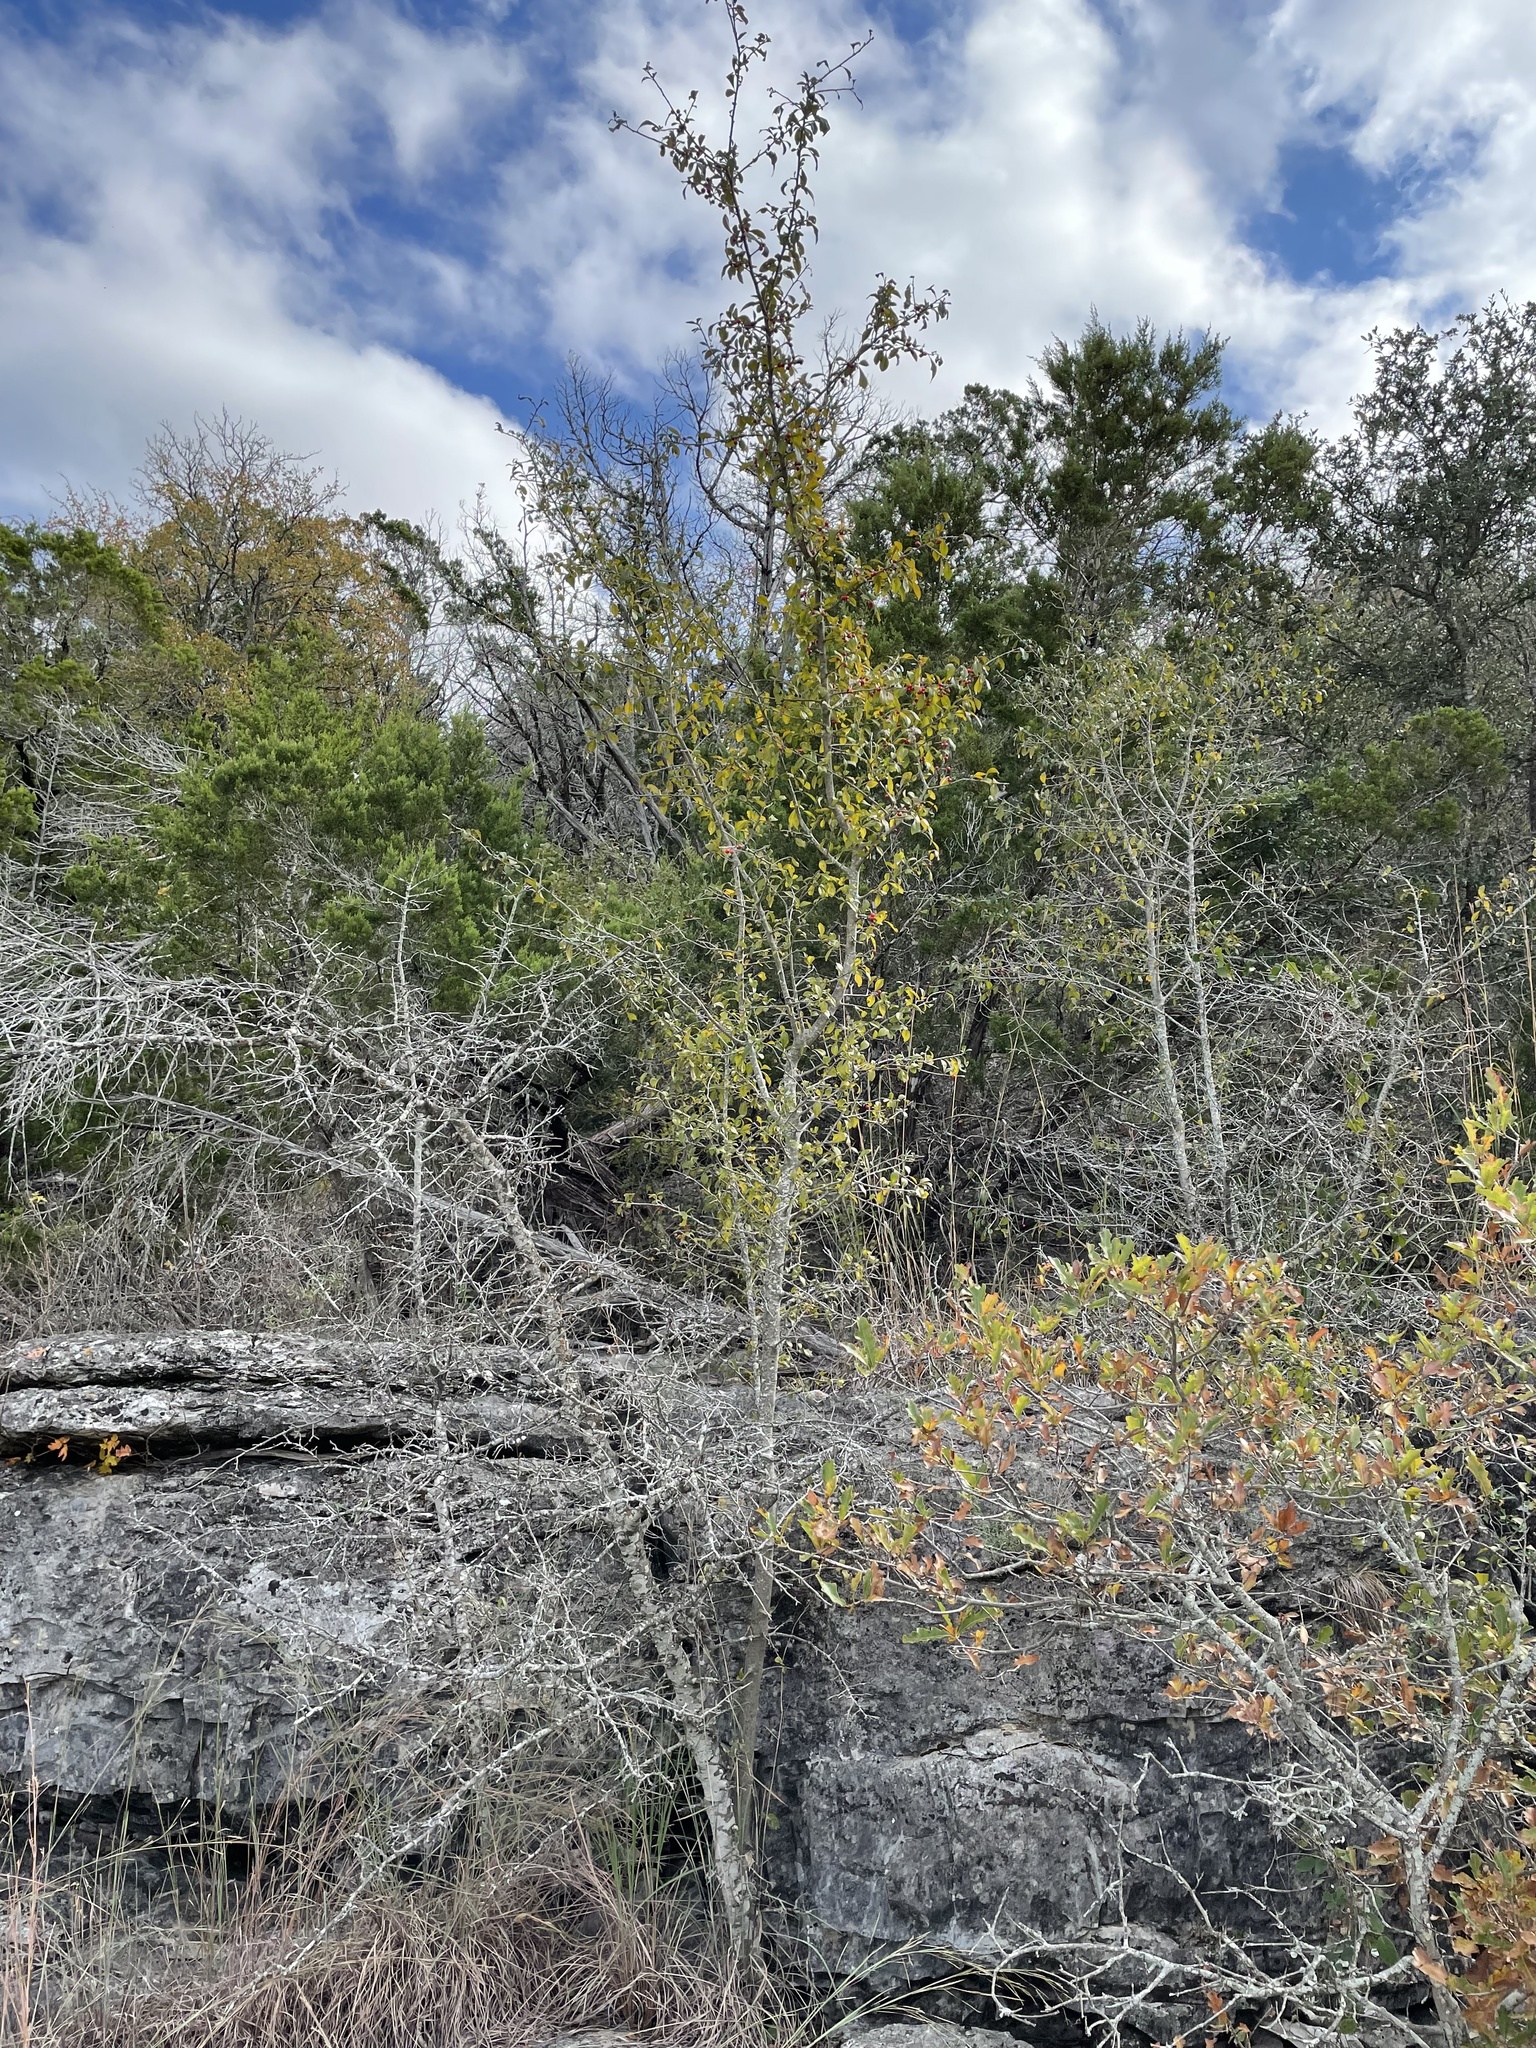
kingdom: Plantae
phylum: Tracheophyta
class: Magnoliopsida
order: Aquifoliales
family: Aquifoliaceae
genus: Ilex
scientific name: Ilex decidua
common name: Possum-haw
